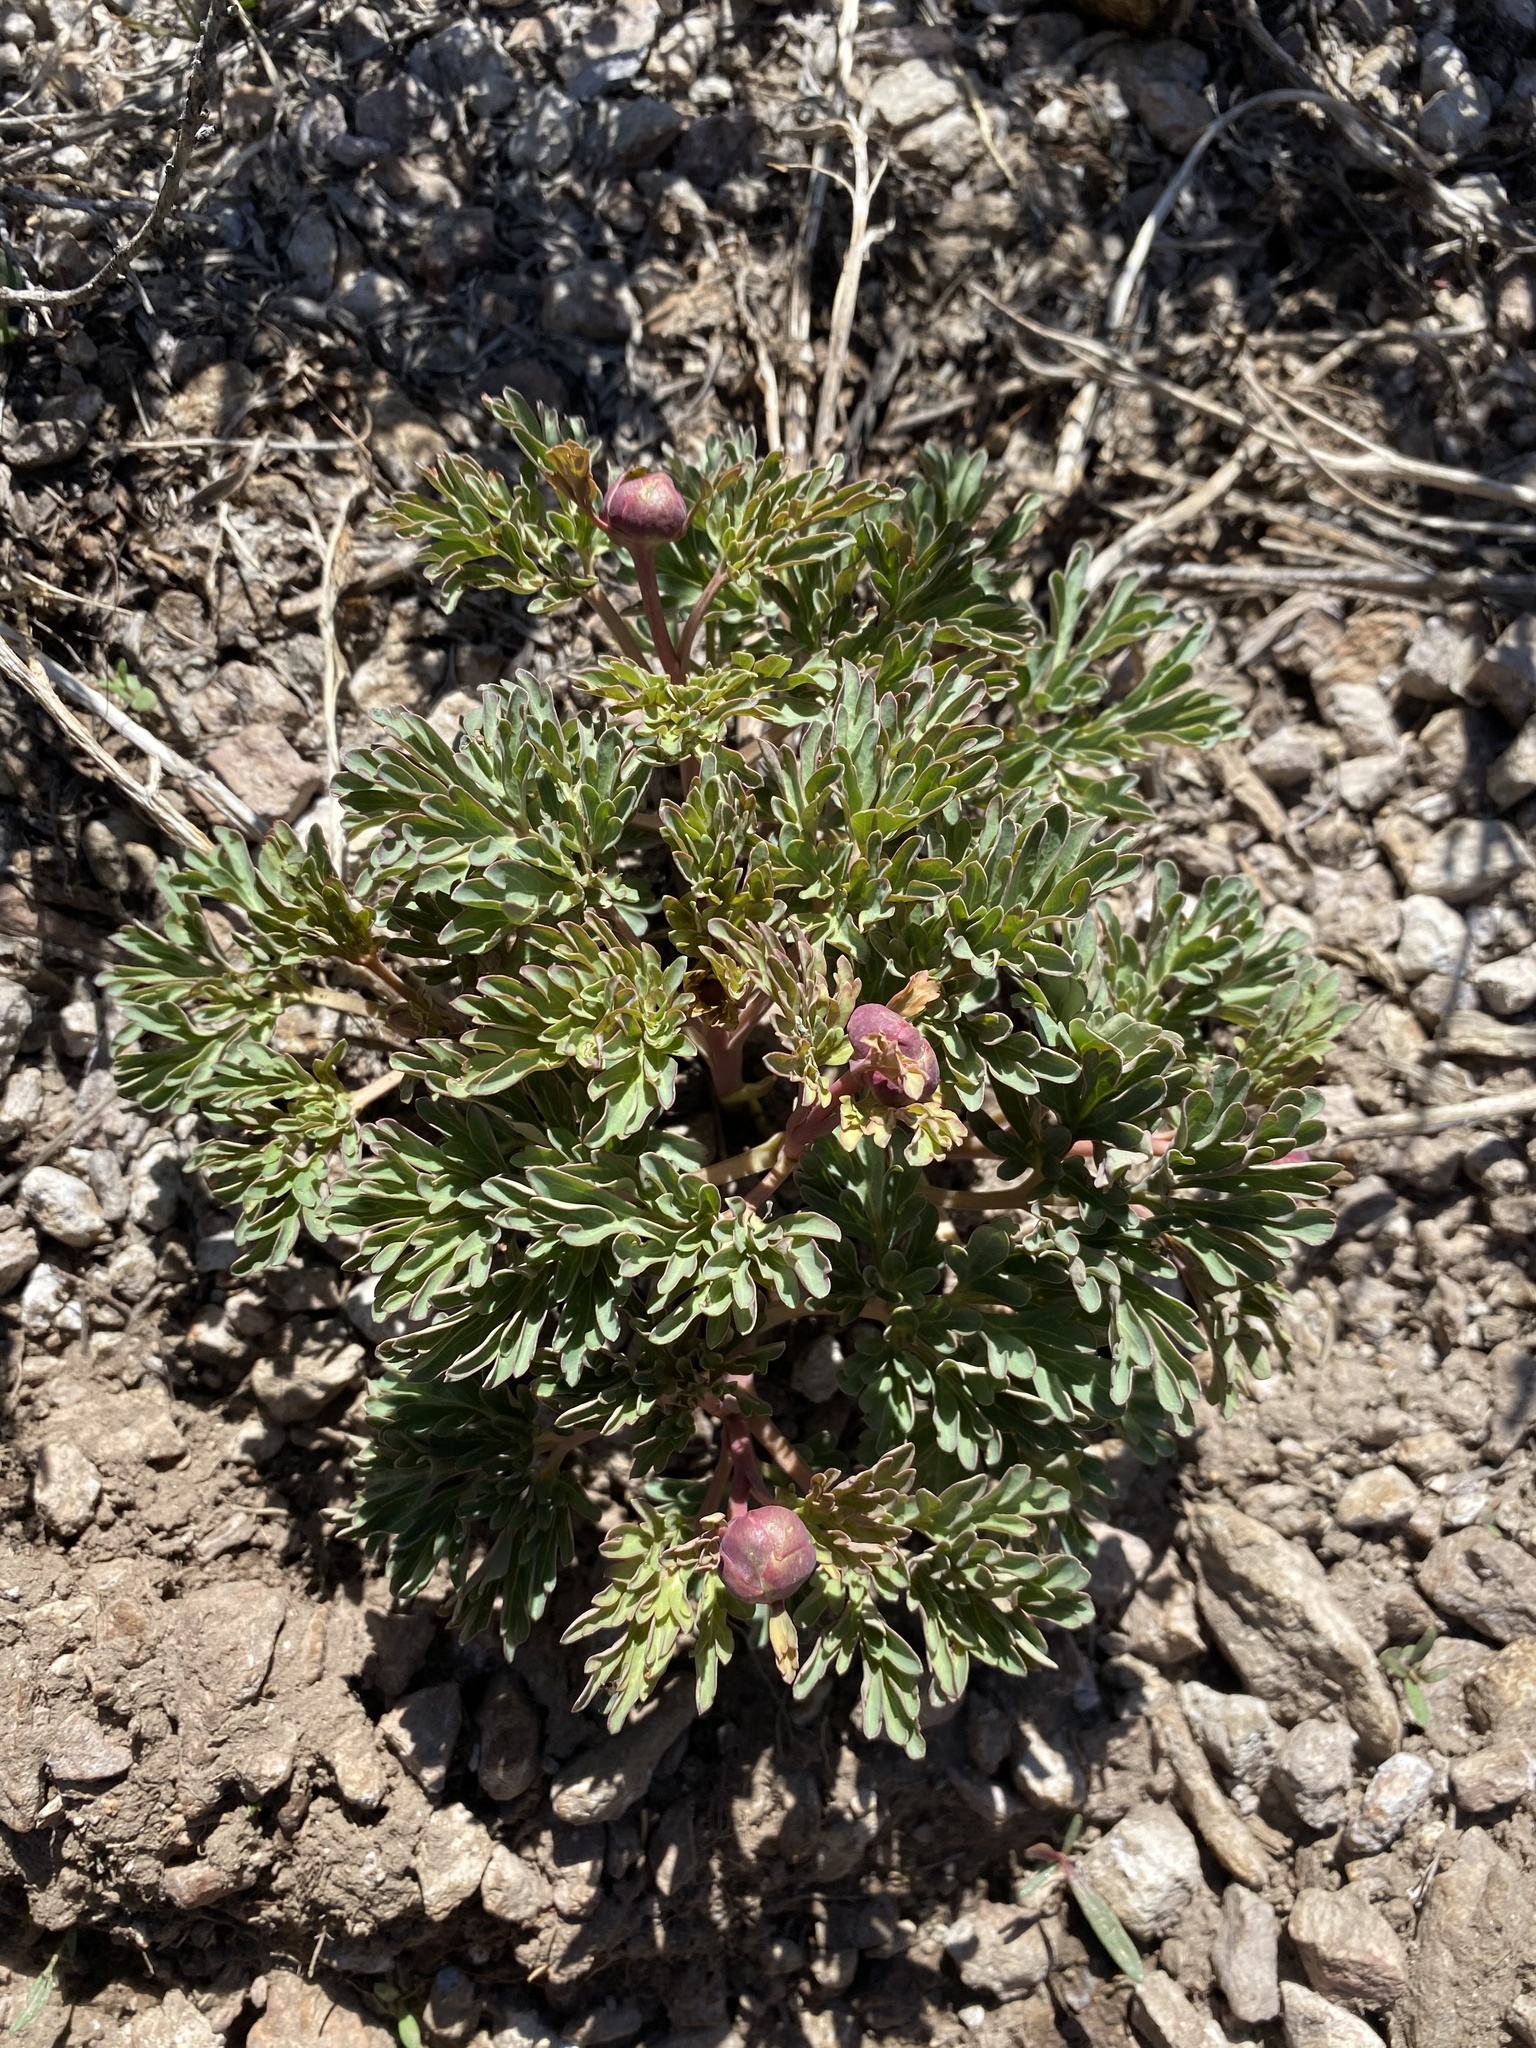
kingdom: Plantae
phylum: Tracheophyta
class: Magnoliopsida
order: Saxifragales
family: Paeoniaceae
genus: Paeonia
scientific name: Paeonia brownii
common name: Brown's peony
